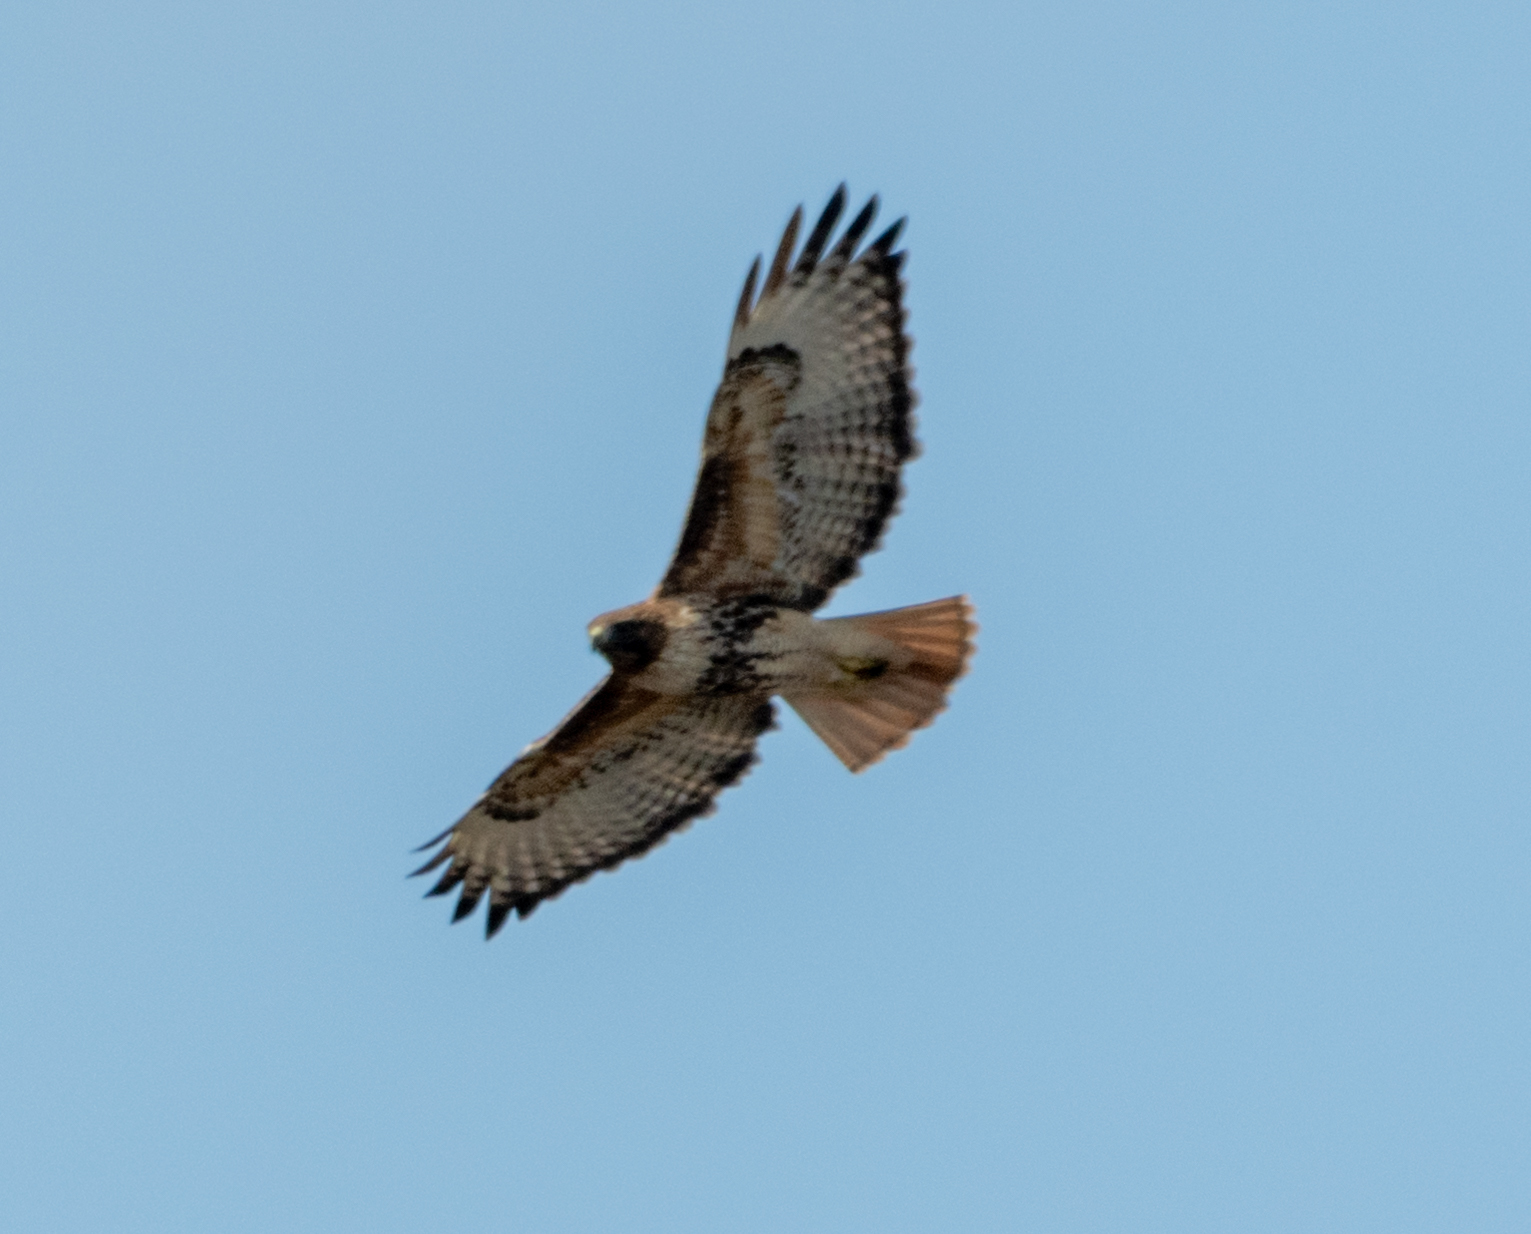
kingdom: Animalia
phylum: Chordata
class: Aves
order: Accipitriformes
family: Accipitridae
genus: Buteo
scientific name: Buteo jamaicensis
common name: Red-tailed hawk
